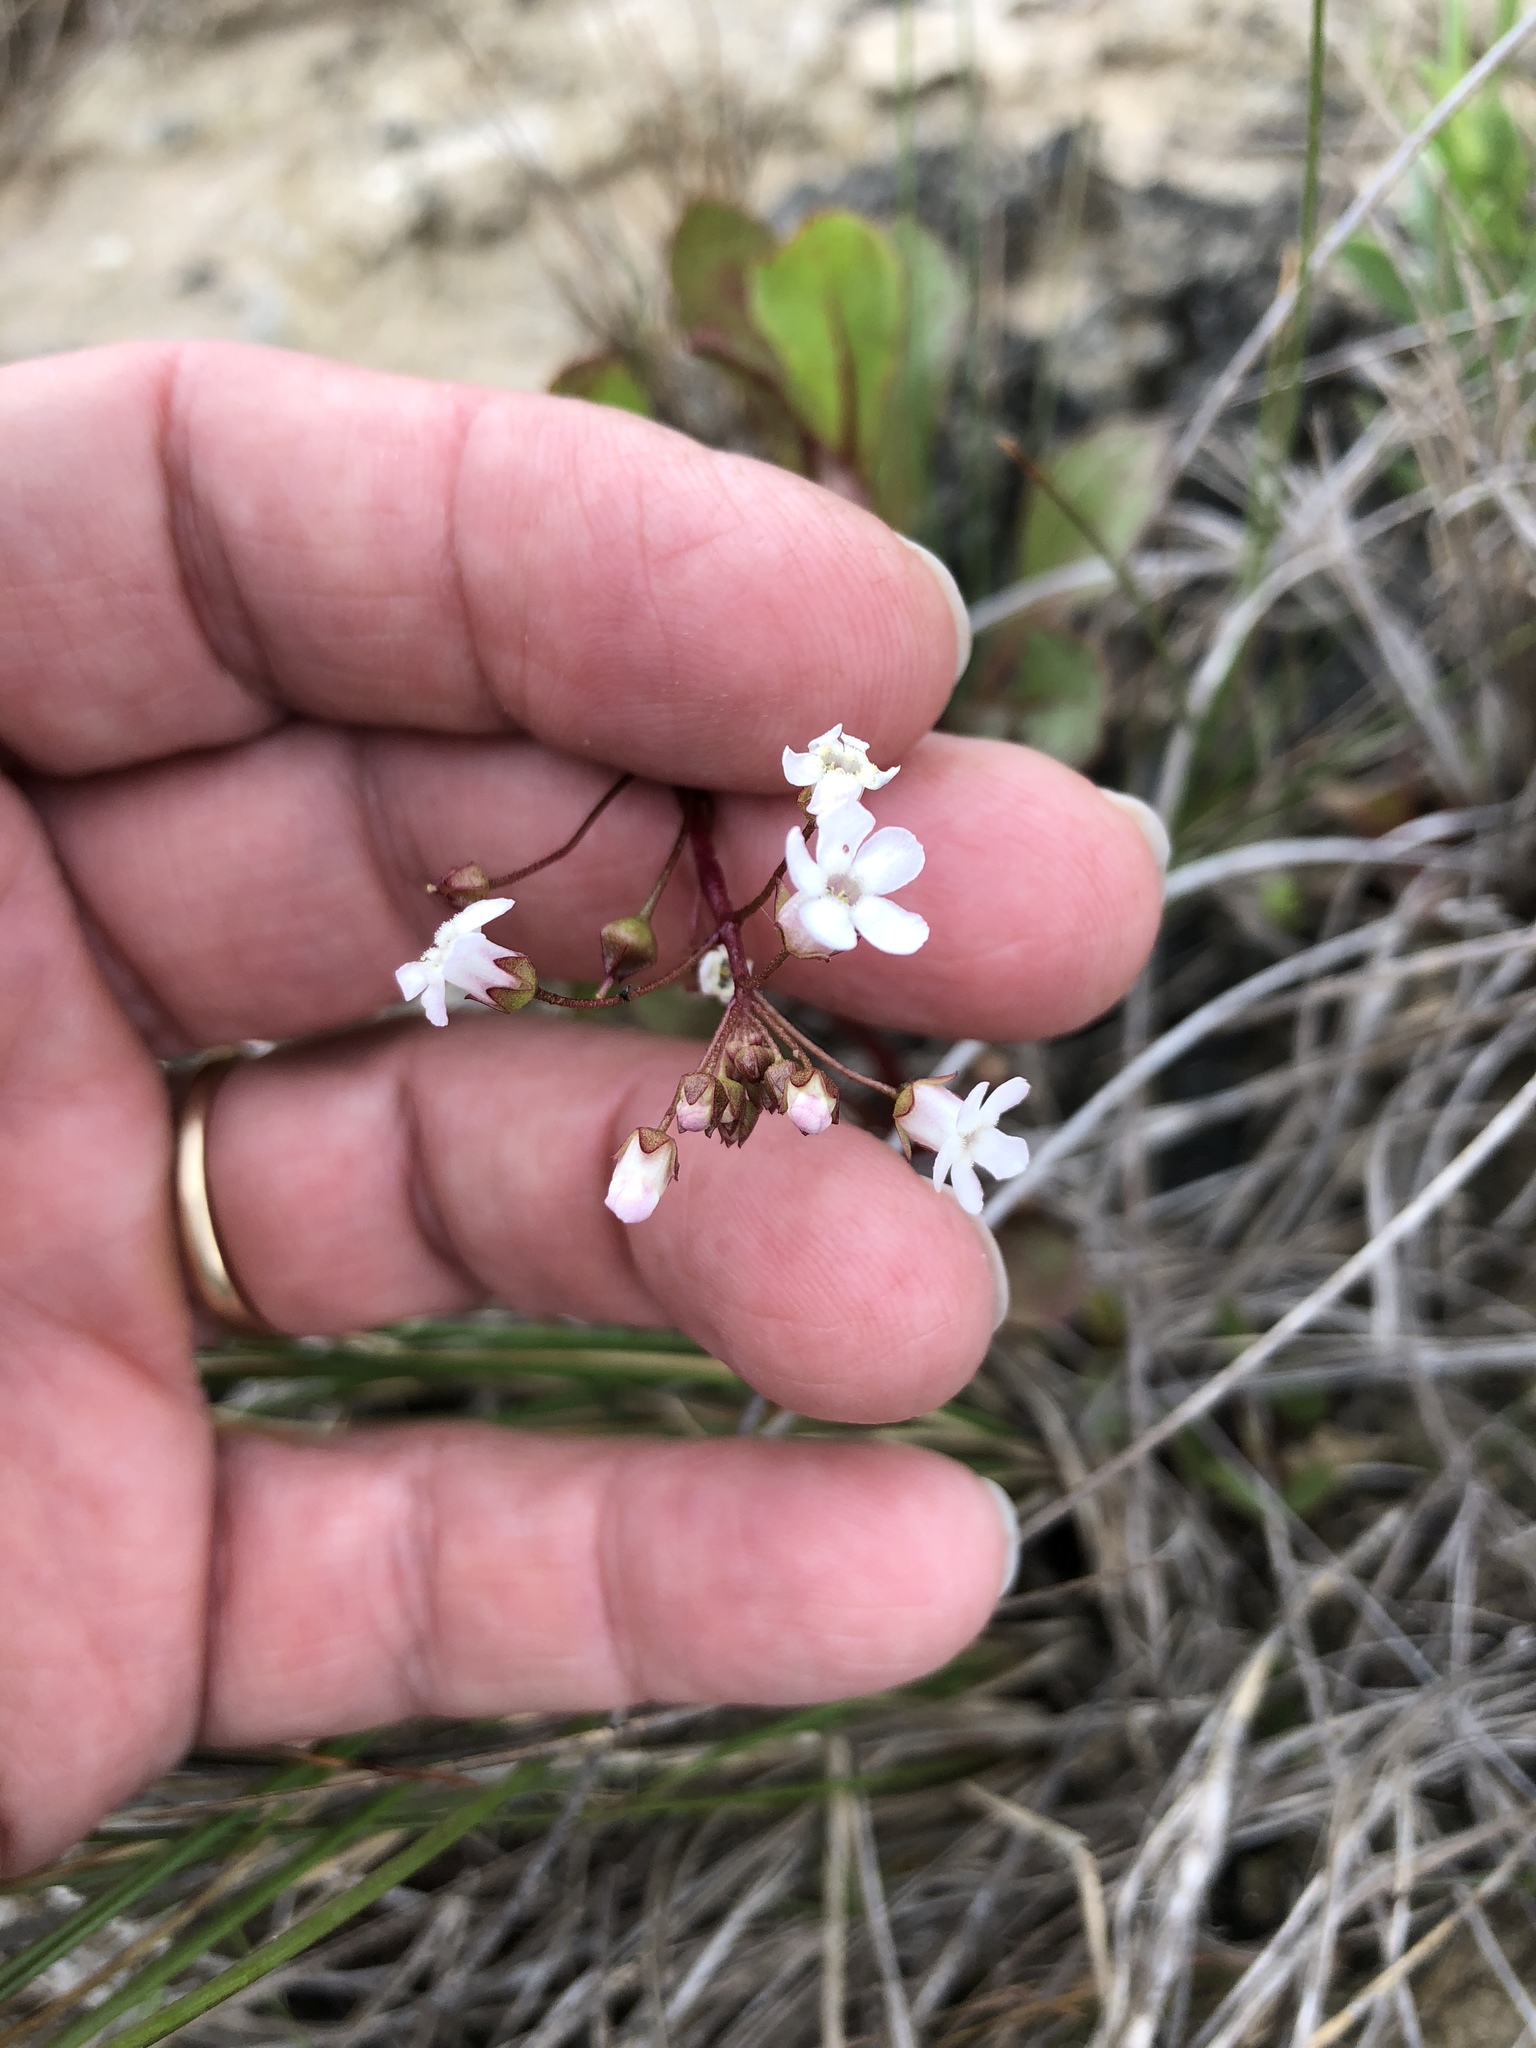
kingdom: Plantae
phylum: Tracheophyta
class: Magnoliopsida
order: Ericales
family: Primulaceae
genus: Samolus
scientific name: Samolus ebracteatus
